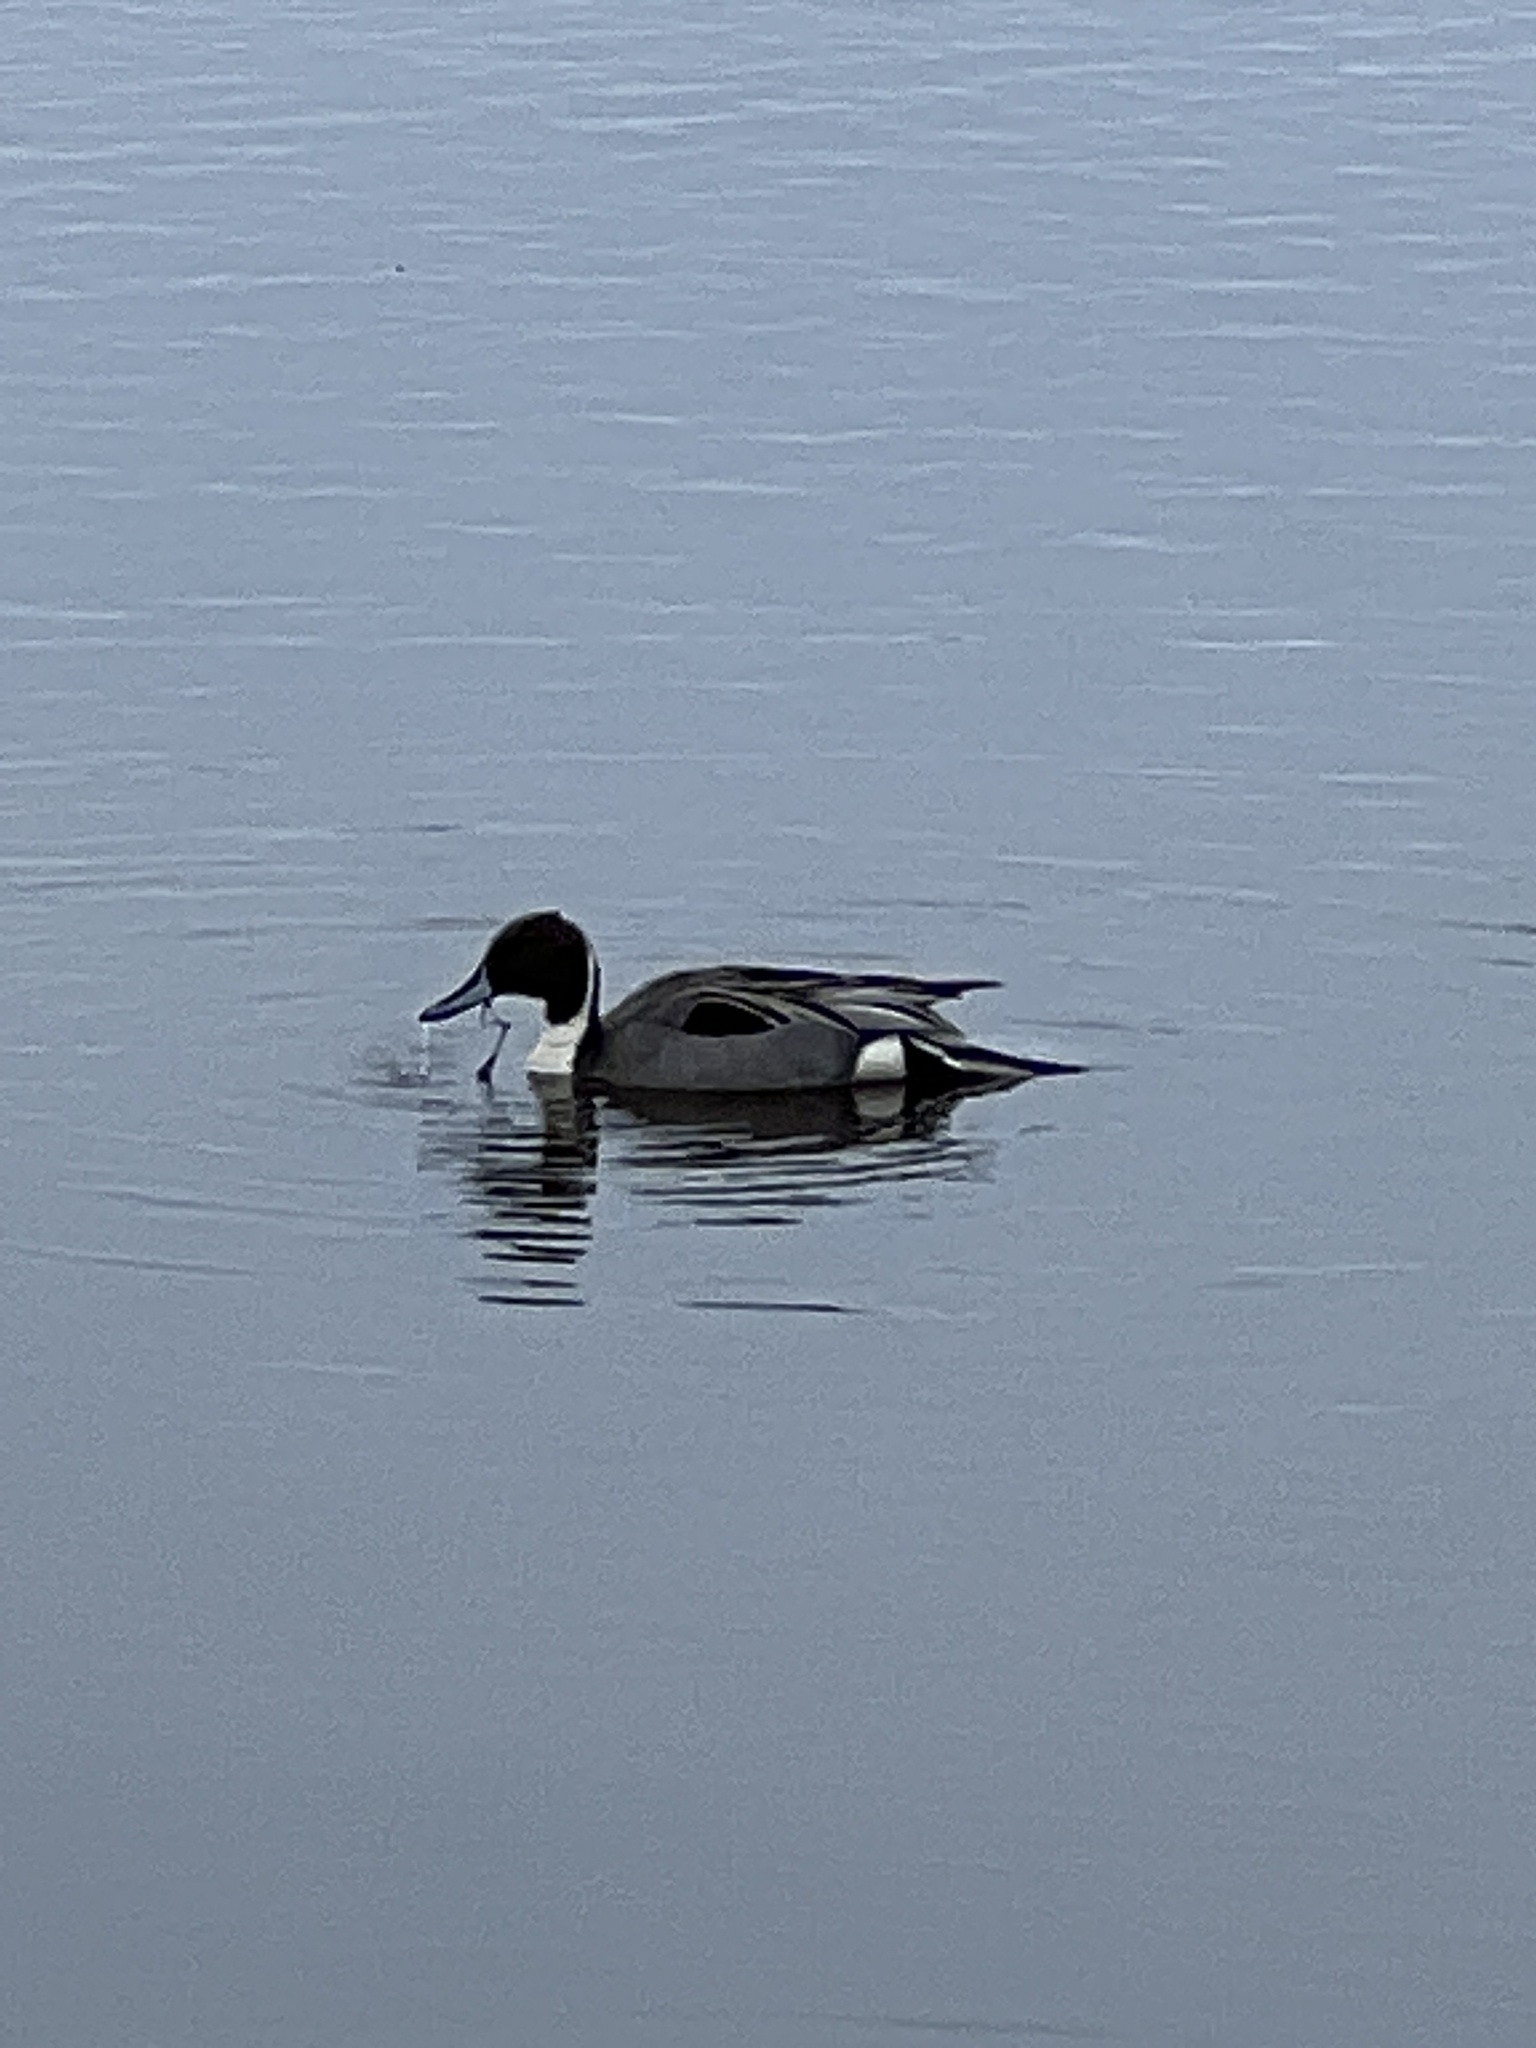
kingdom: Animalia
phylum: Chordata
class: Aves
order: Anseriformes
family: Anatidae
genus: Anas
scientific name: Anas acuta
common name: Northern pintail
